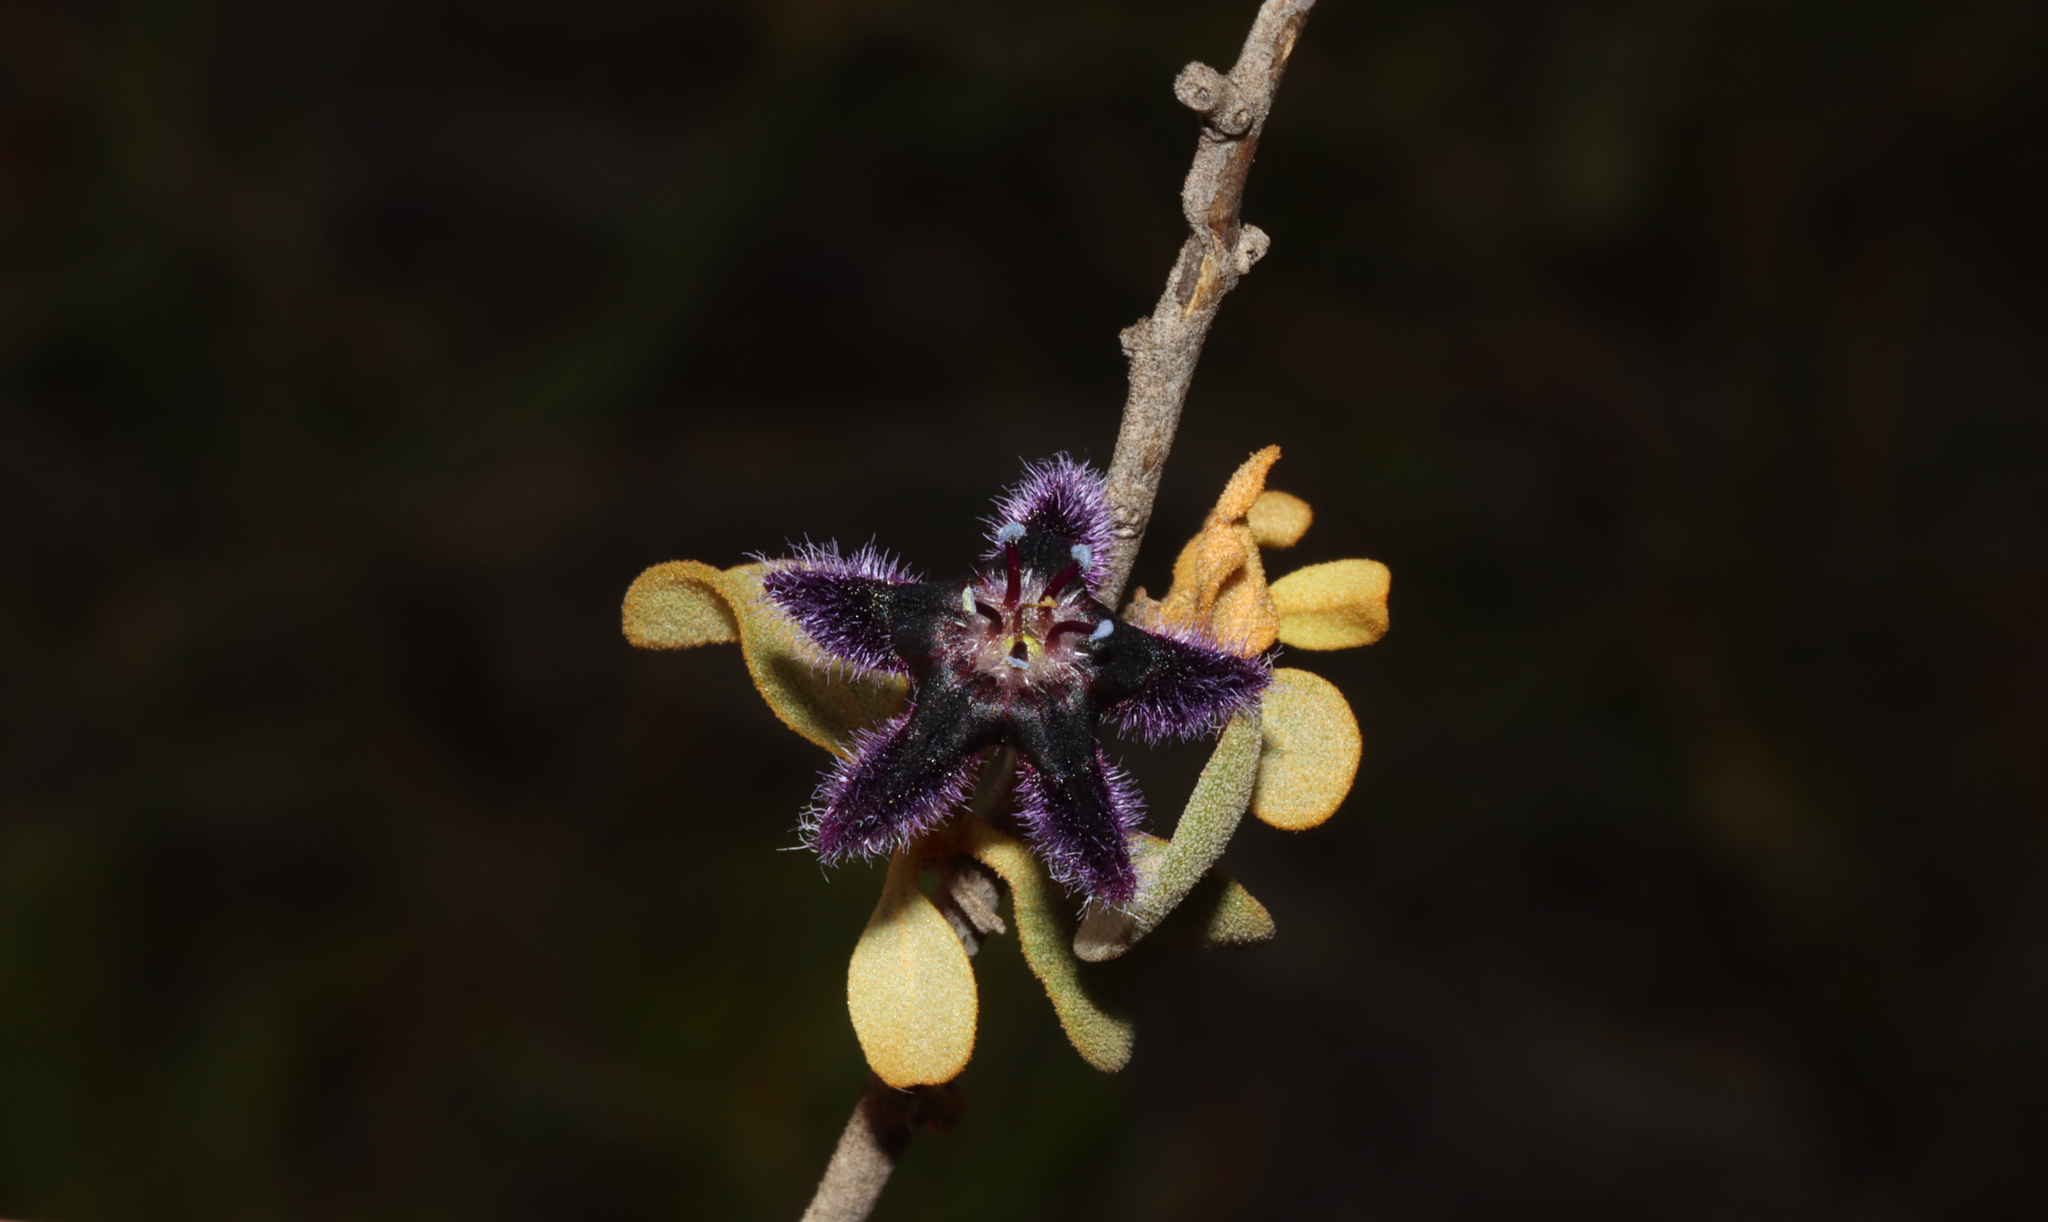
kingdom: Plantae
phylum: Tracheophyta
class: Magnoliopsida
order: Solanales
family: Solanaceae
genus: Anthotroche
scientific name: Anthotroche walcottii
